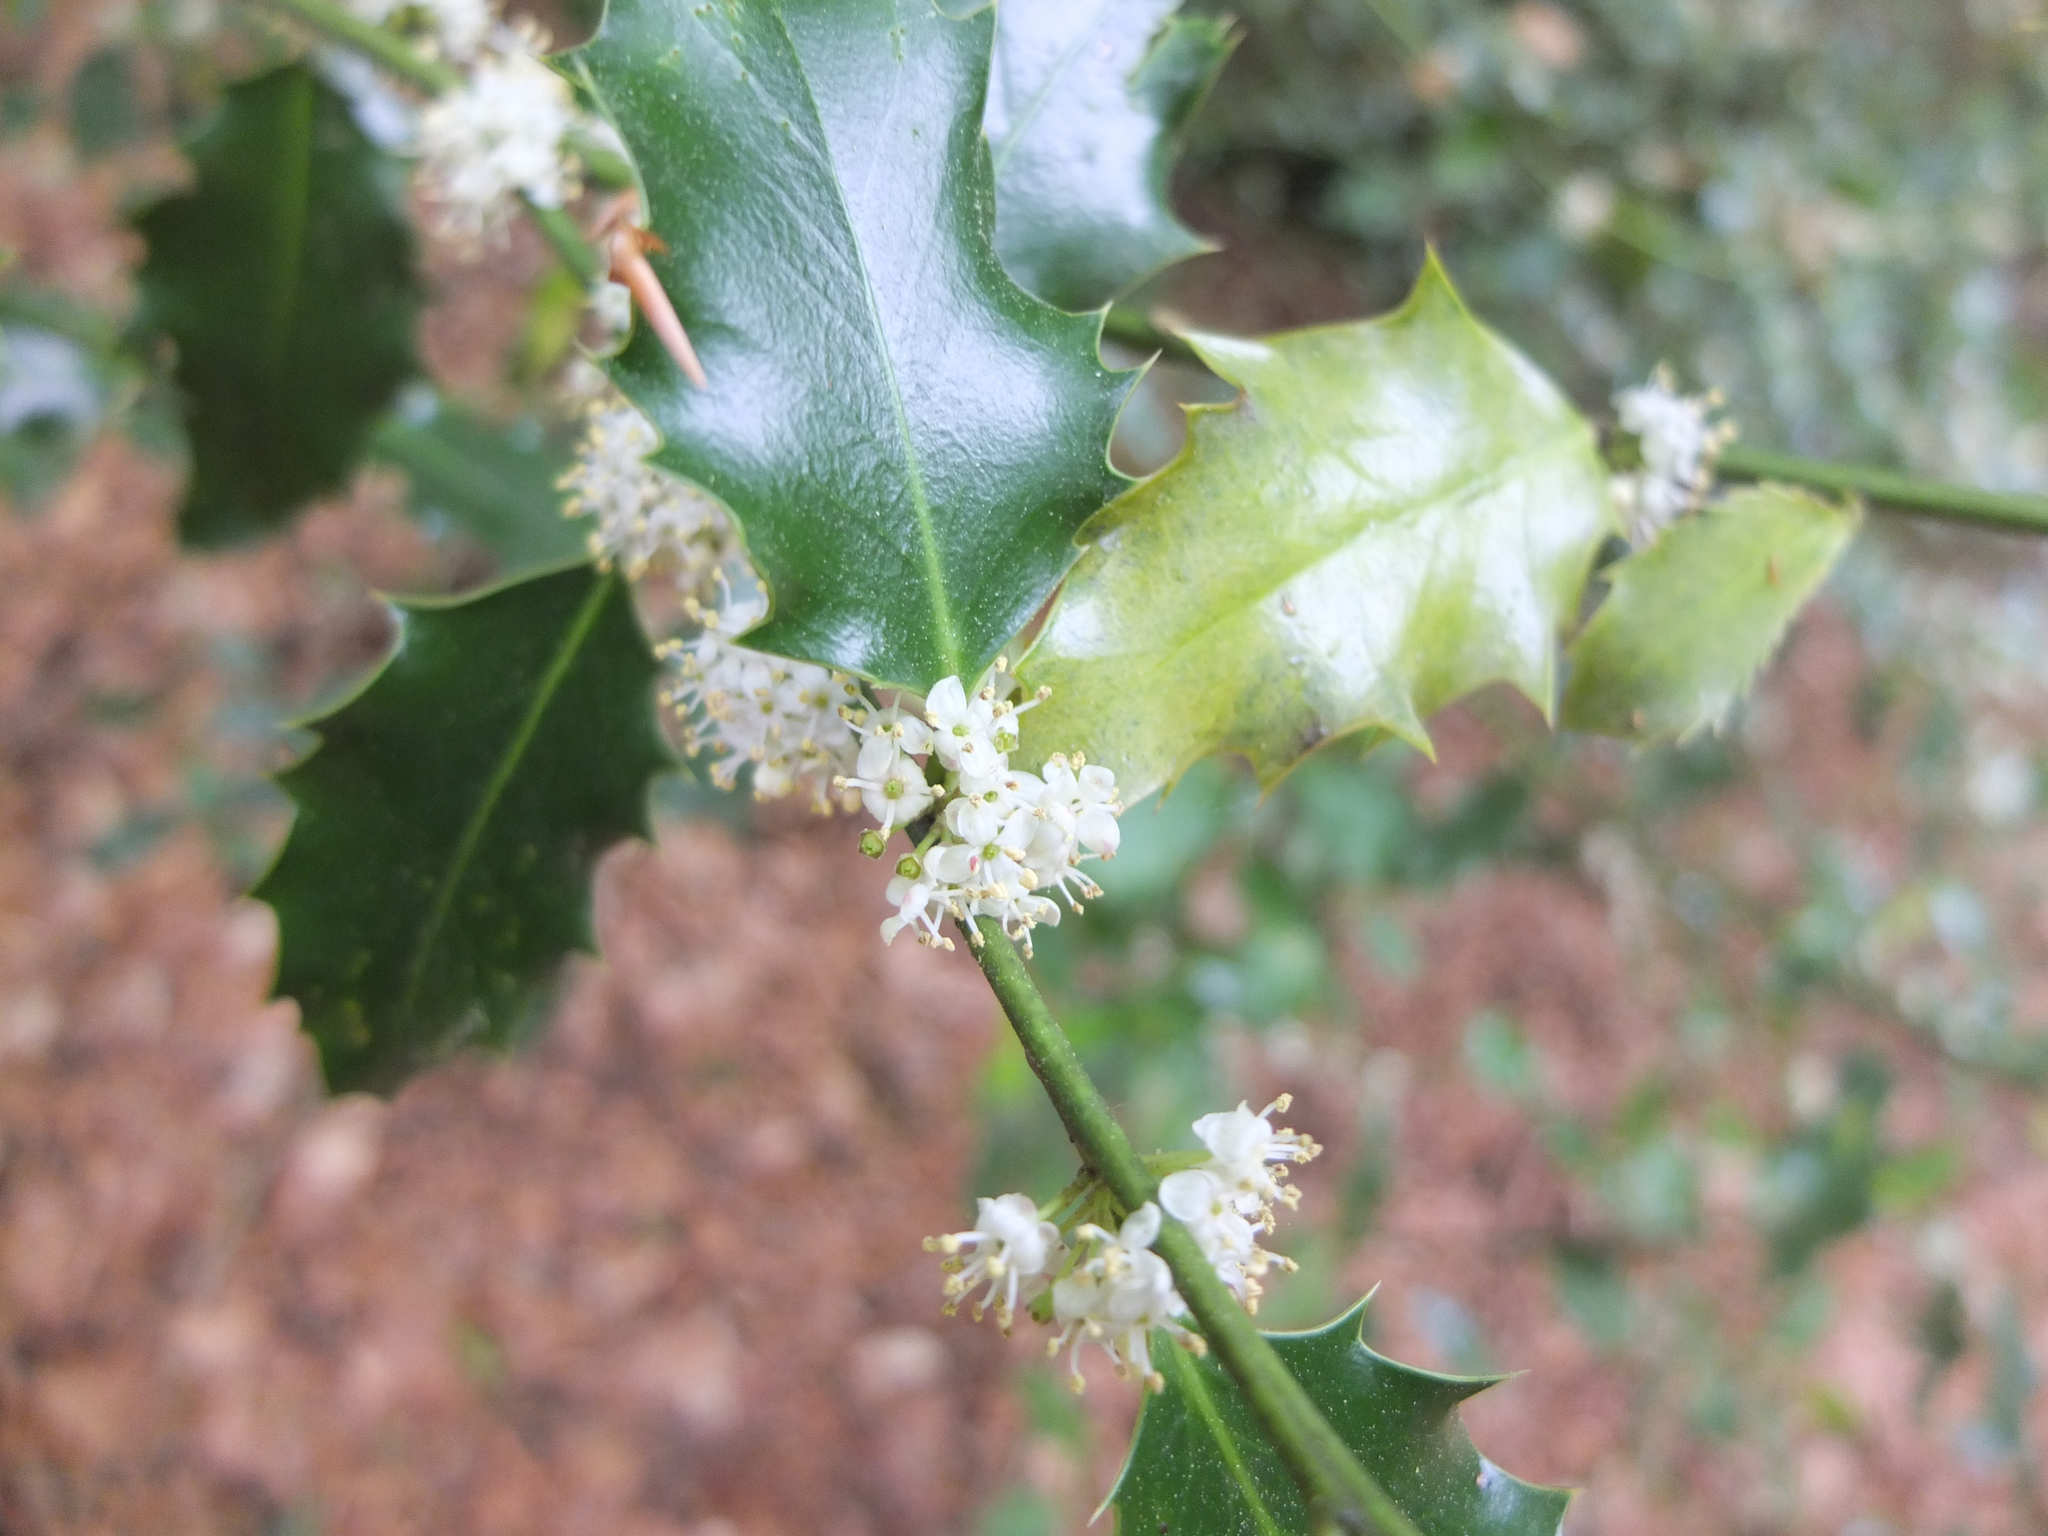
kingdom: Plantae
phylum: Tracheophyta
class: Magnoliopsida
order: Aquifoliales
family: Aquifoliaceae
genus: Ilex
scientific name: Ilex aquifolium
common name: English holly
